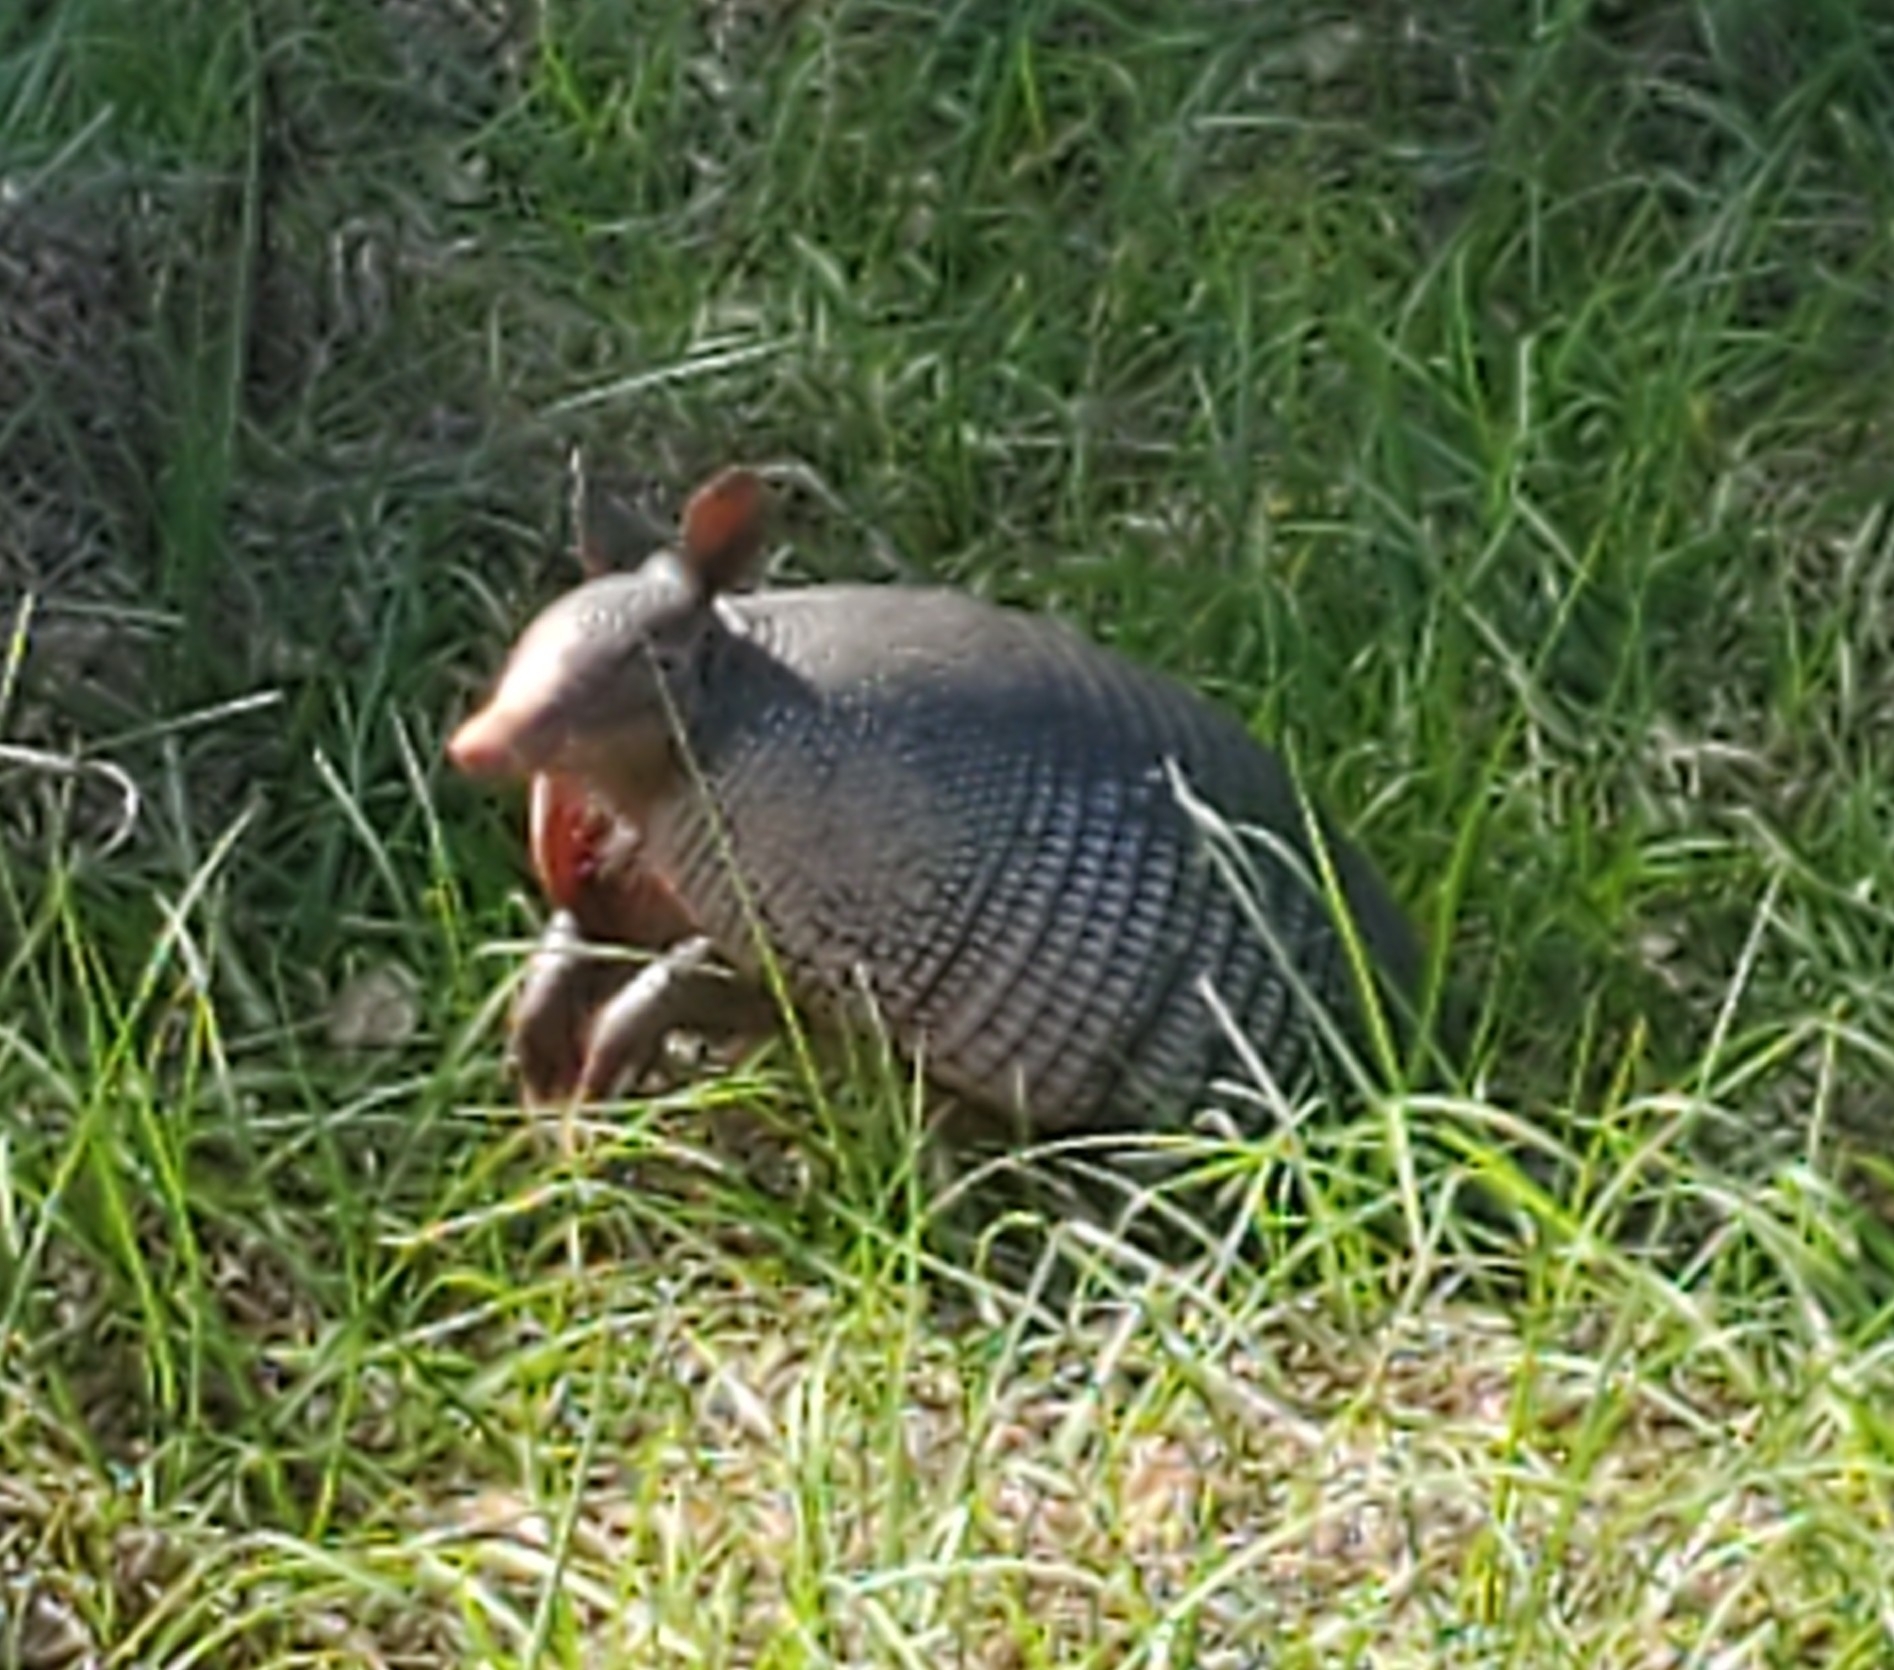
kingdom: Animalia
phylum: Chordata
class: Mammalia
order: Cingulata
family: Dasypodidae
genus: Dasypus
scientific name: Dasypus novemcinctus
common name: Nine-banded armadillo
